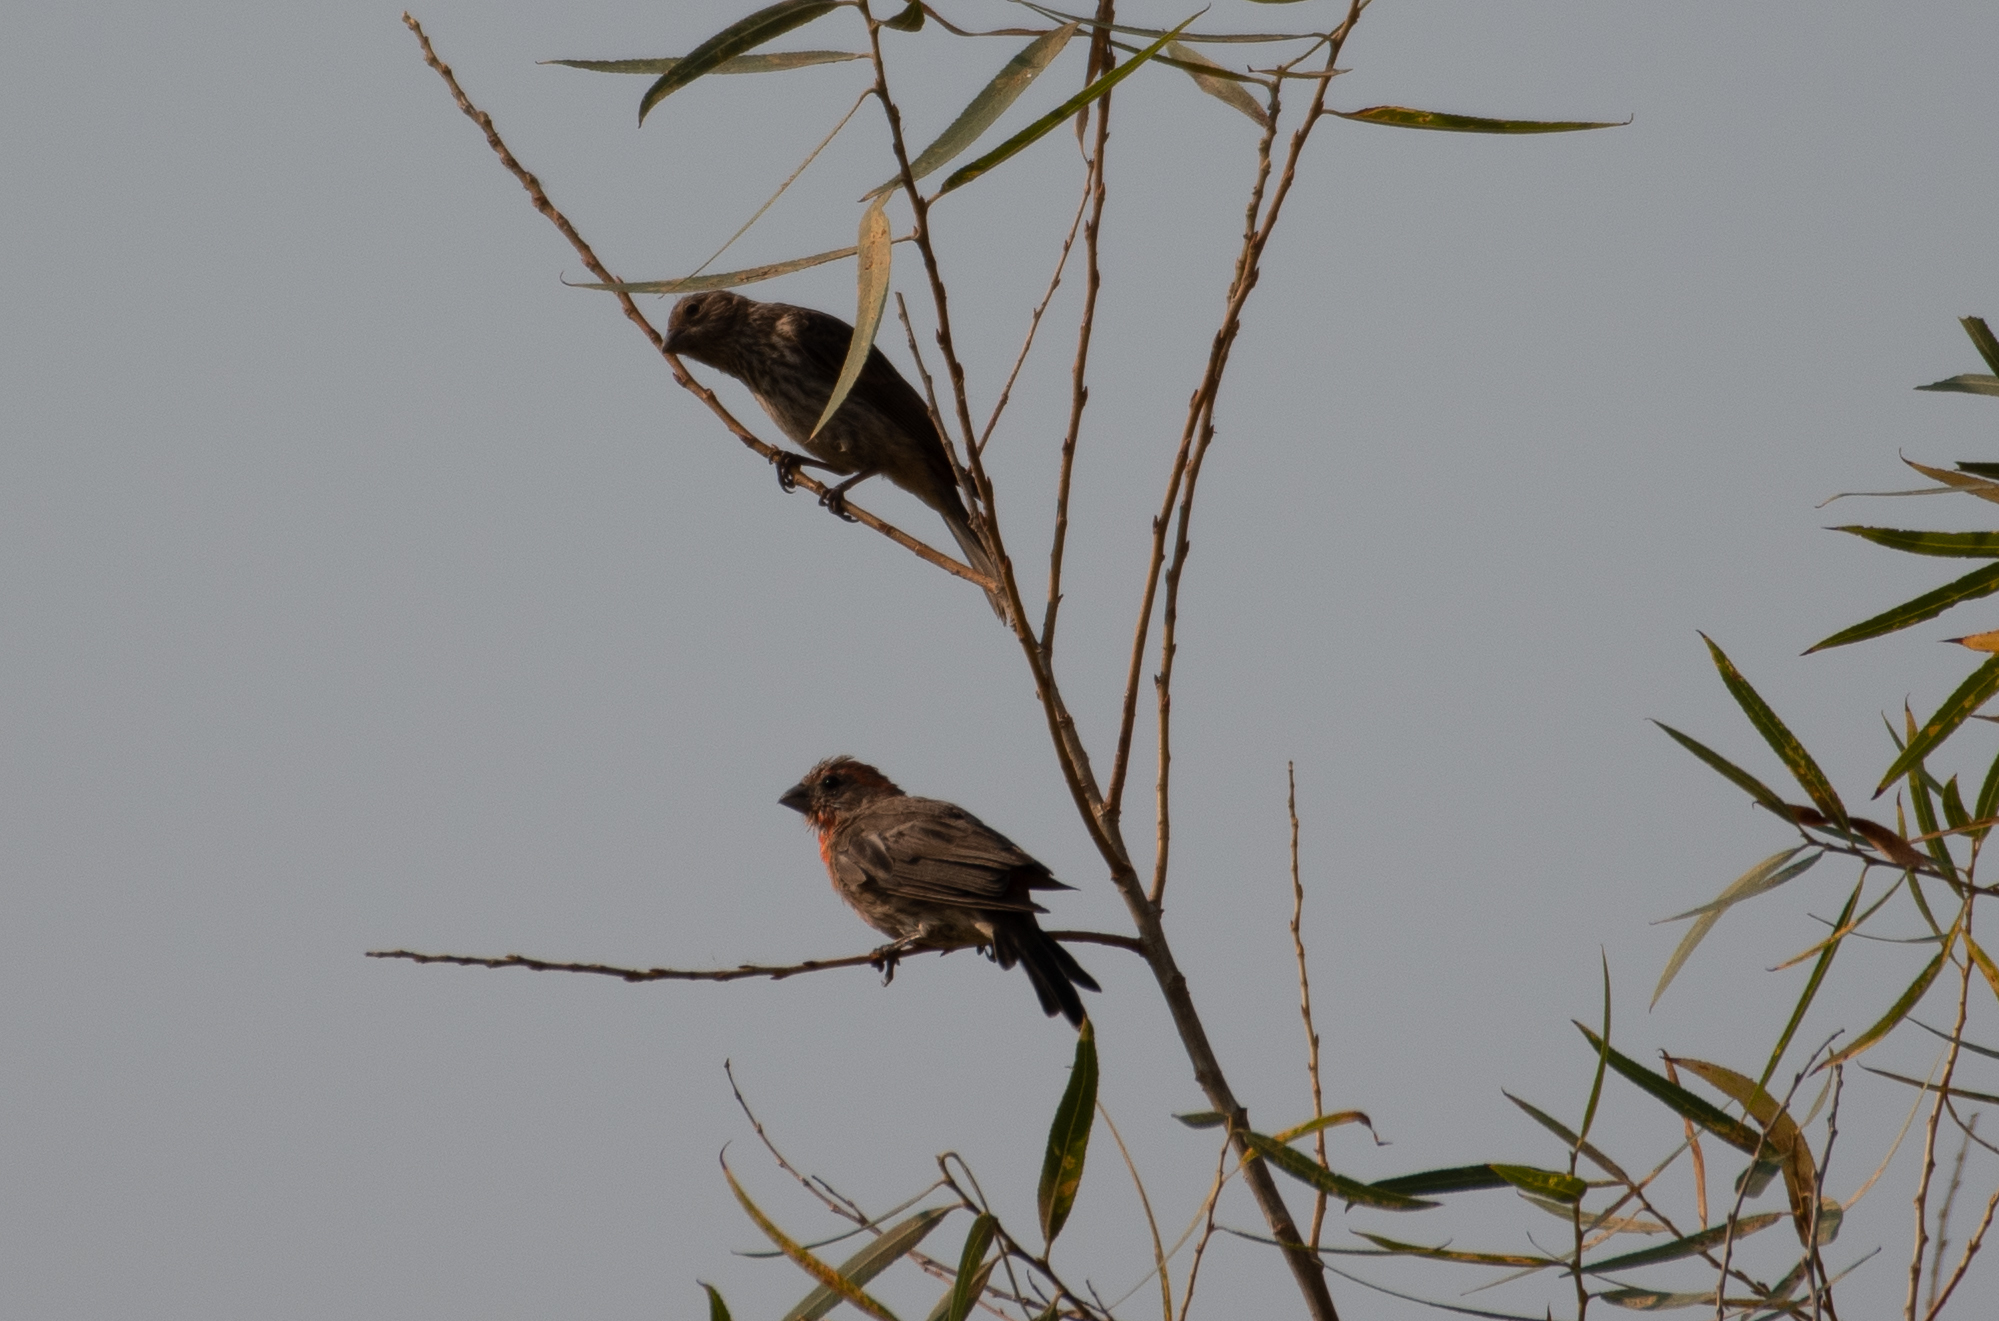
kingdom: Animalia
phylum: Chordata
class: Aves
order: Passeriformes
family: Fringillidae
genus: Haemorhous
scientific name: Haemorhous mexicanus
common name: House finch
